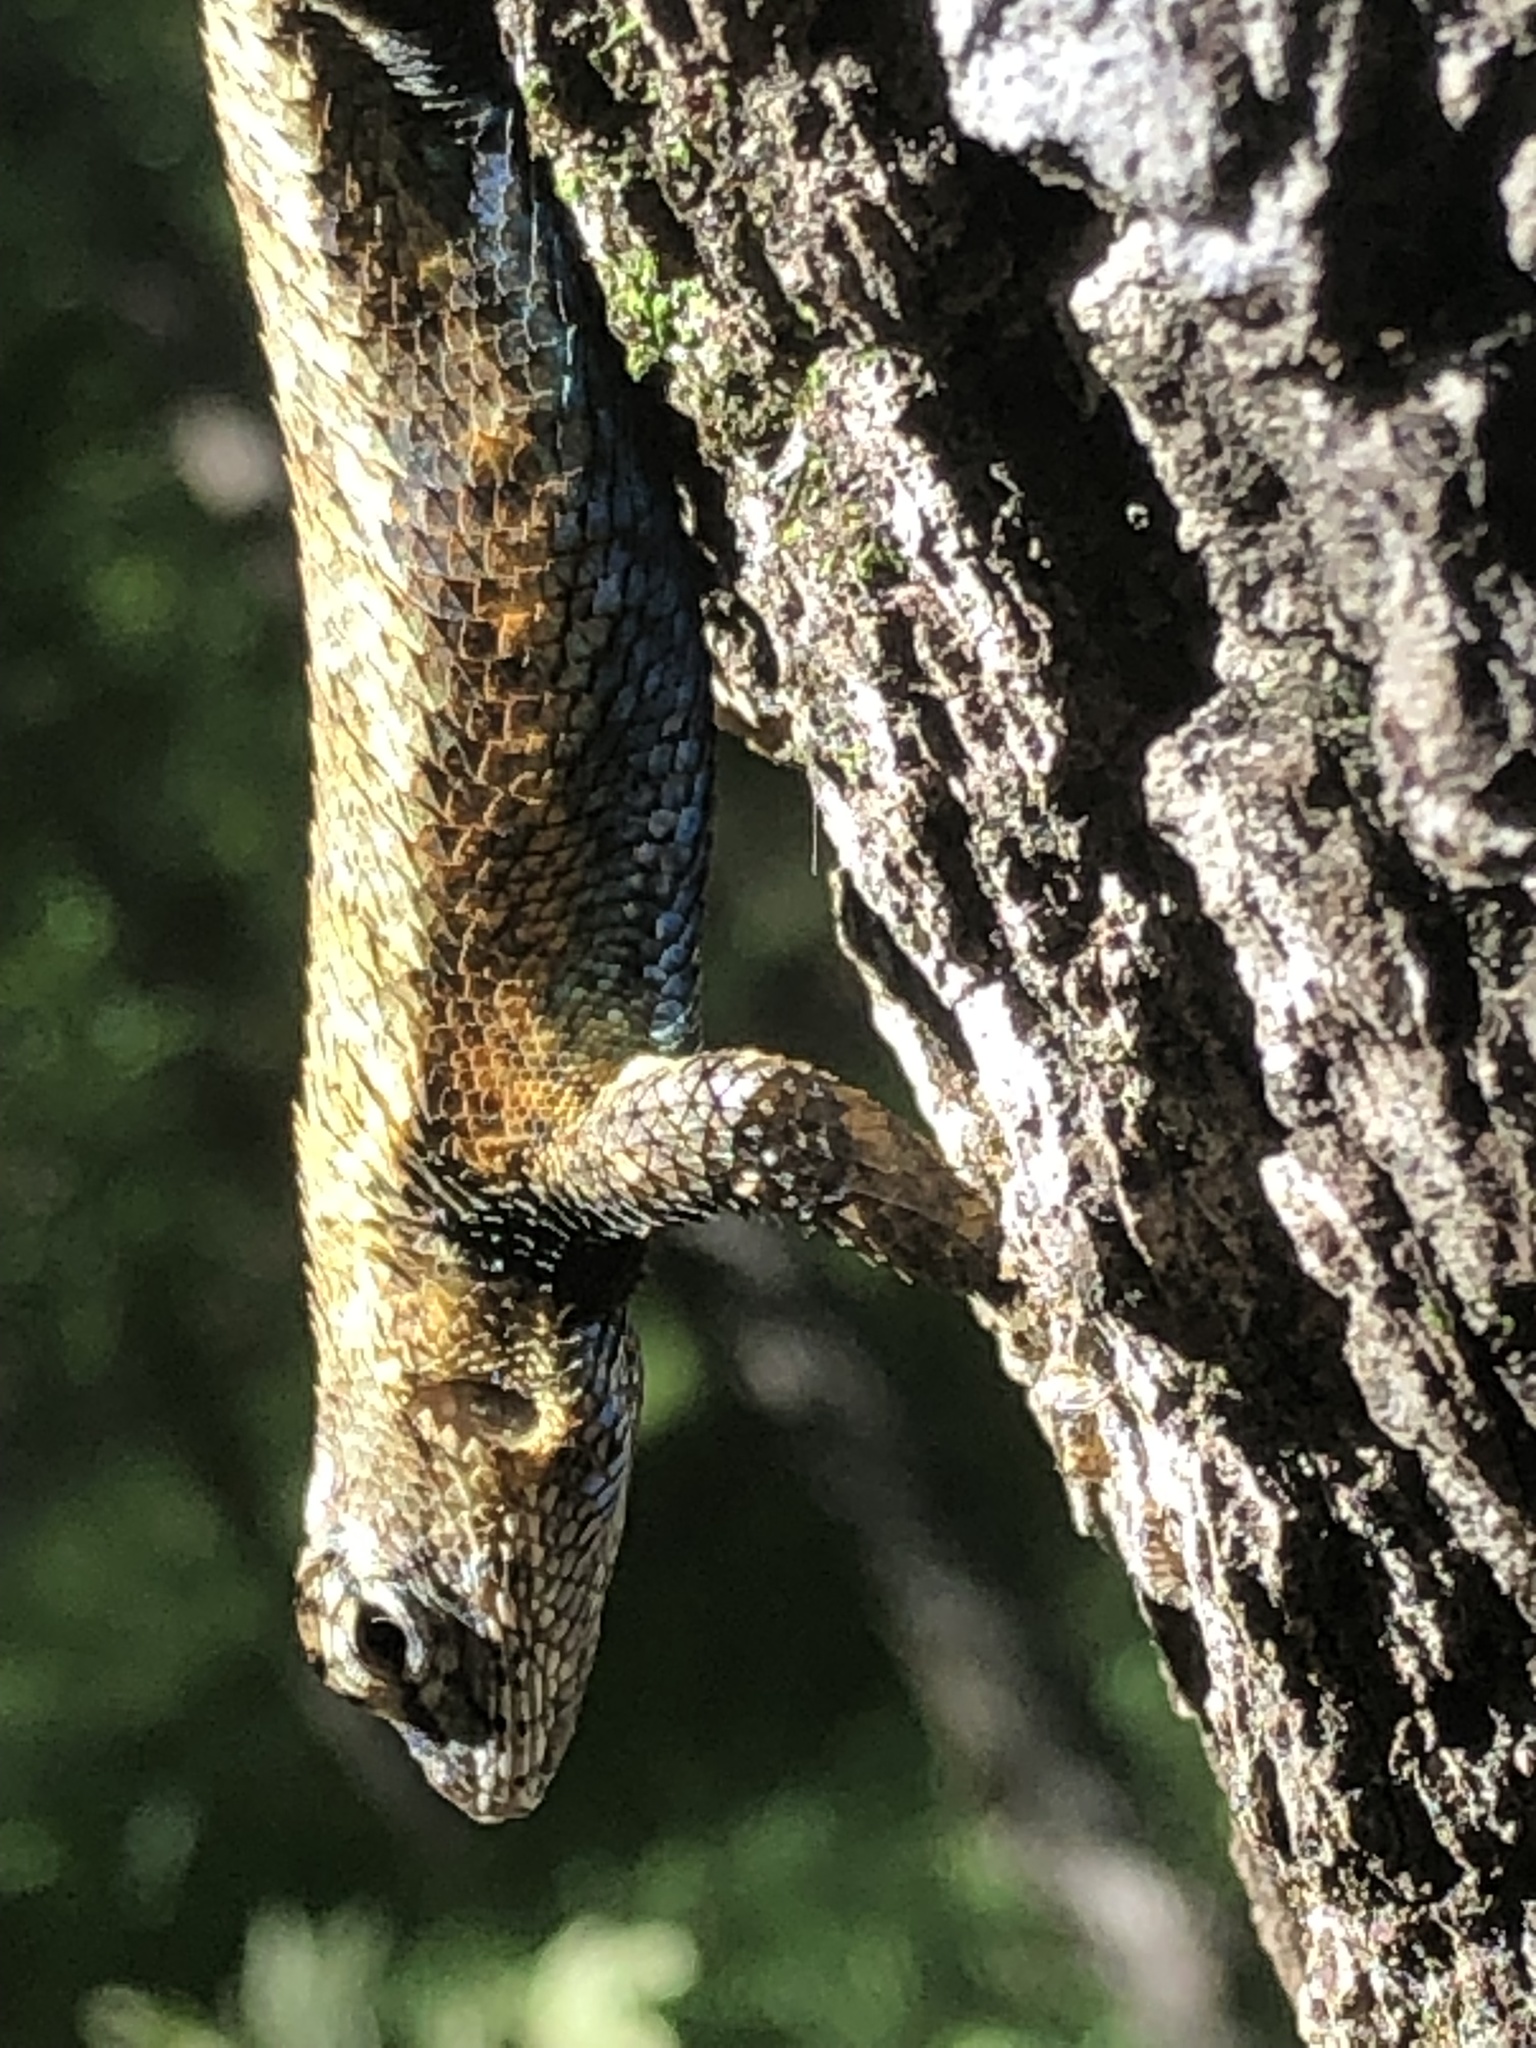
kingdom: Animalia
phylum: Chordata
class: Squamata
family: Phrynosomatidae
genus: Sceloporus
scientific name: Sceloporus undulatus
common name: Eastern fence lizard
